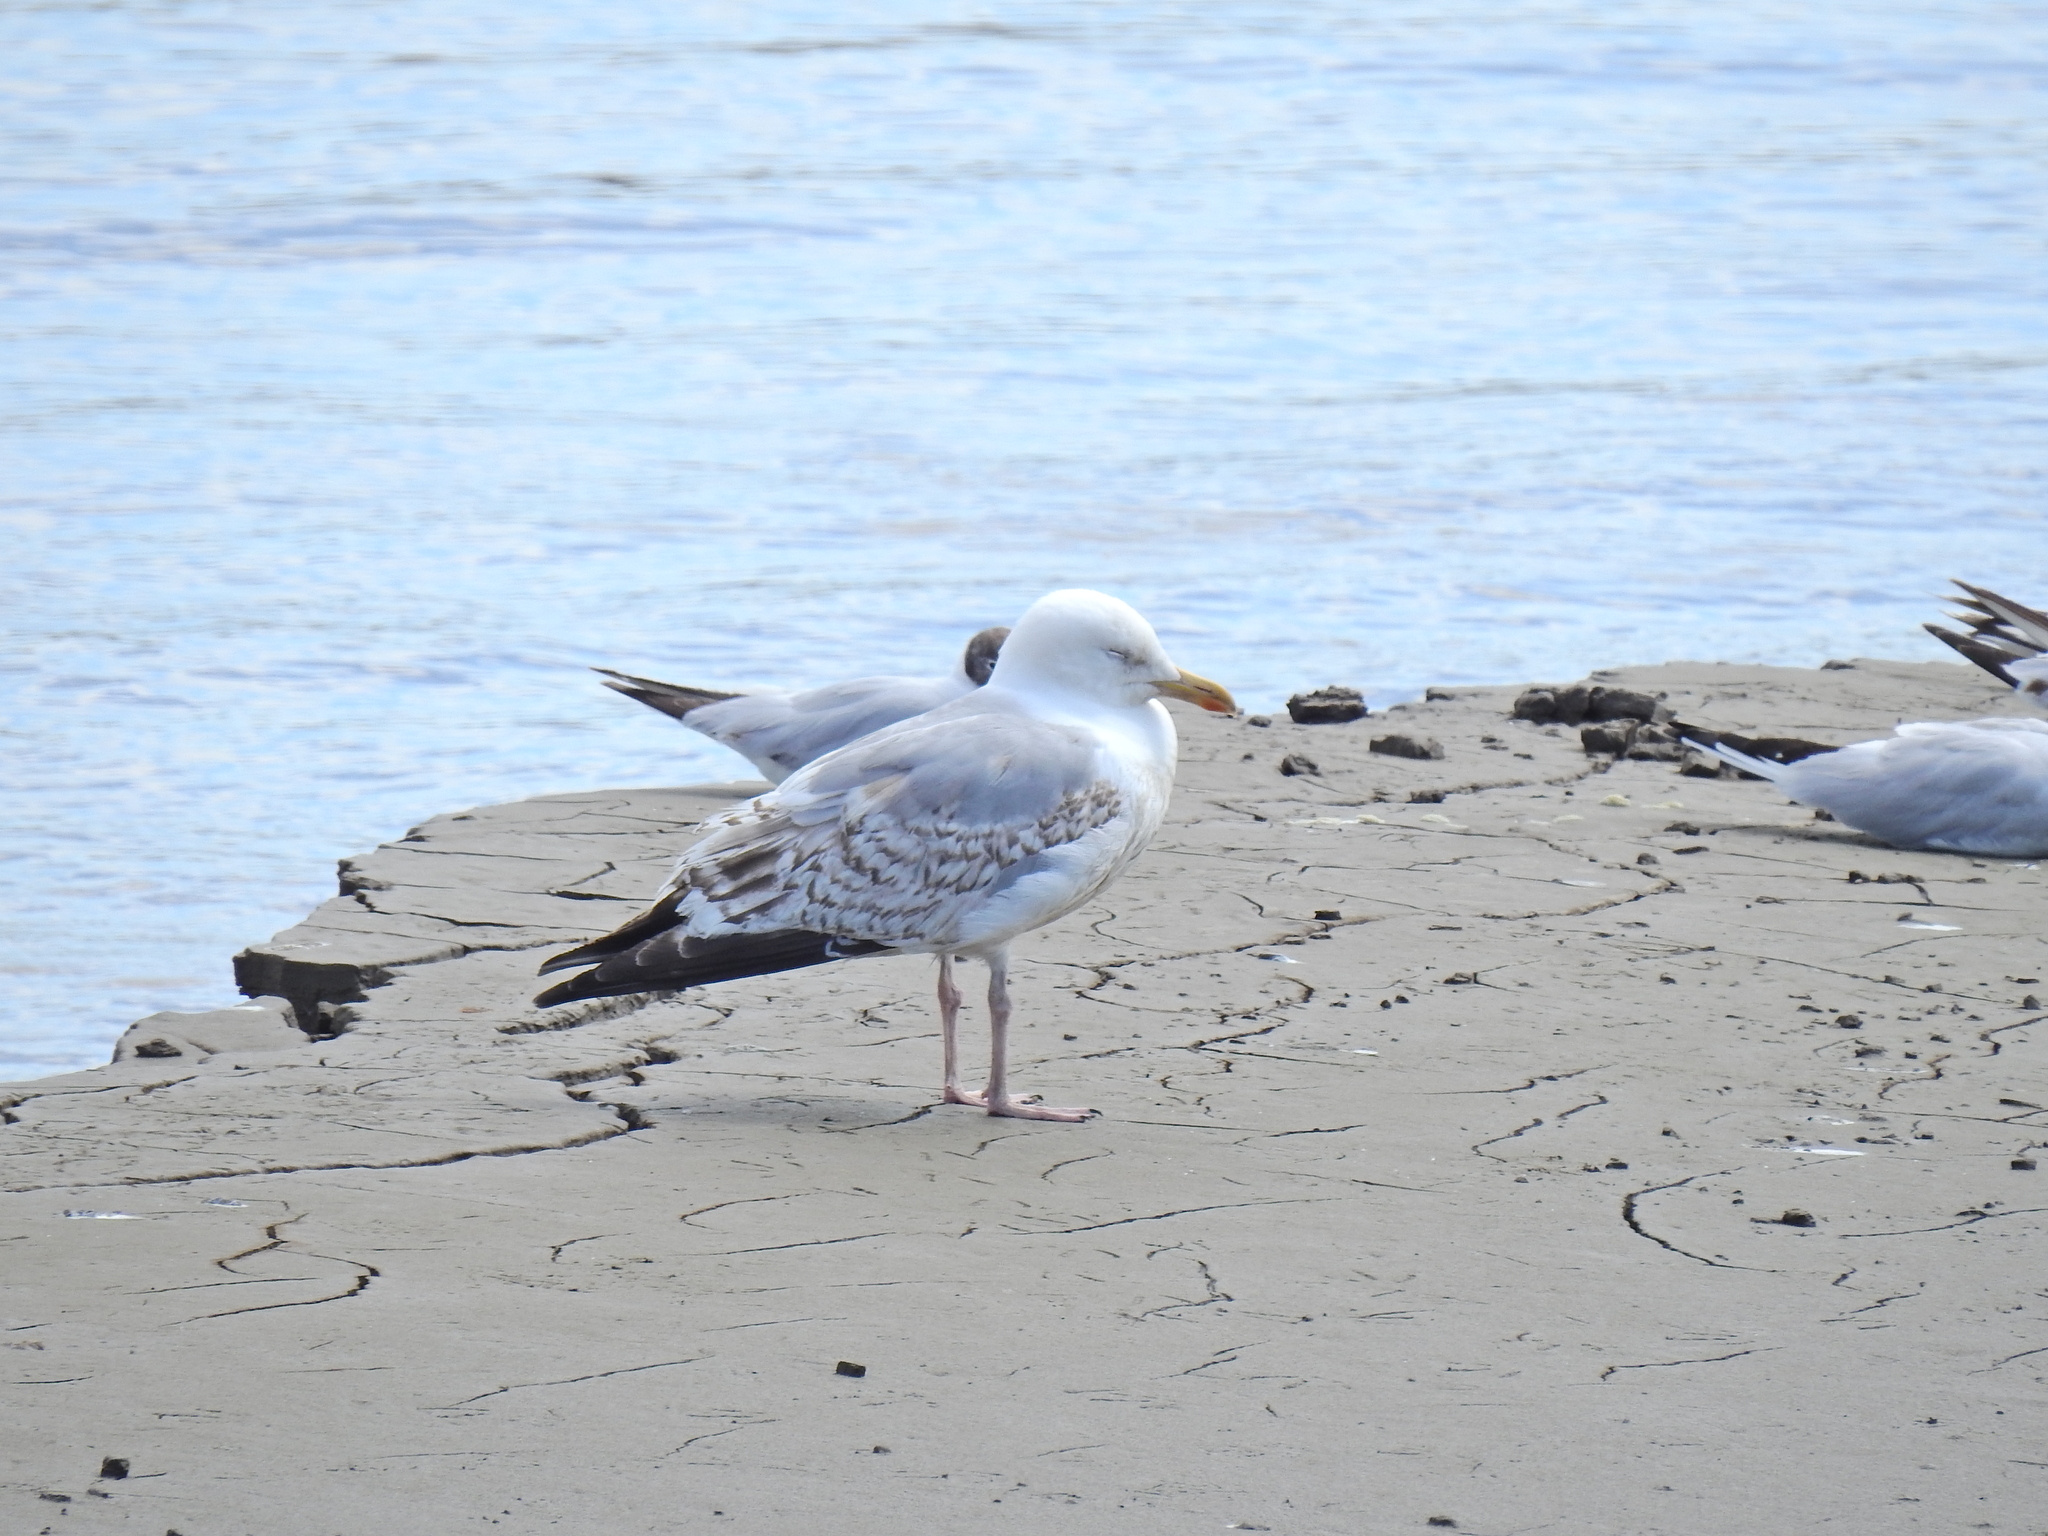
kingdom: Animalia
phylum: Chordata
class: Aves
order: Charadriiformes
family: Laridae
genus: Larus
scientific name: Larus argentatus
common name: Herring gull
